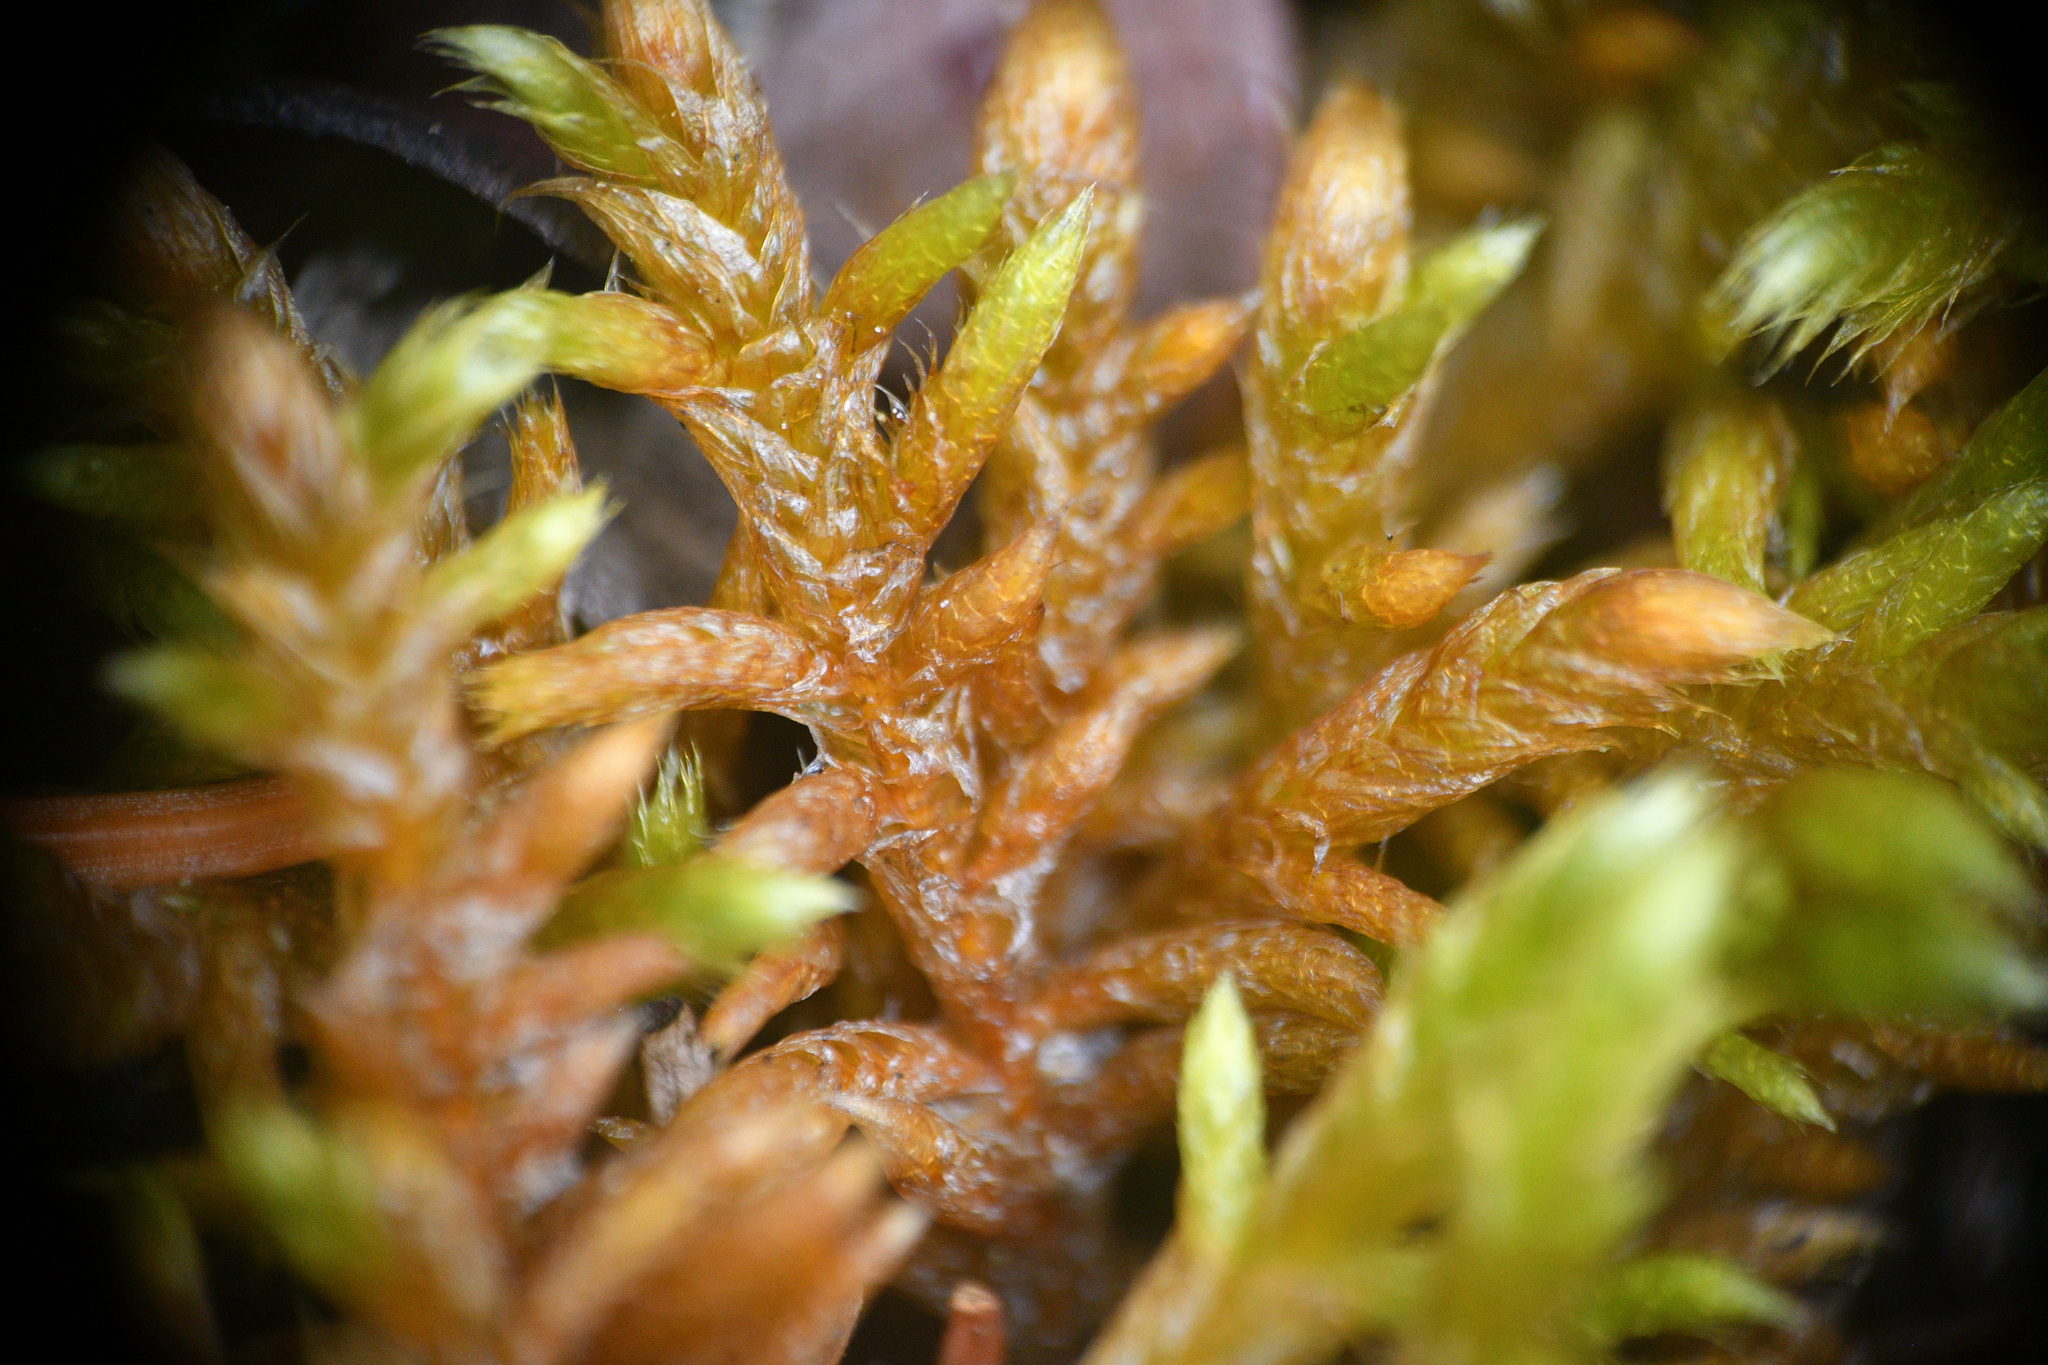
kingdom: Plantae
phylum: Bryophyta
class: Bryopsida
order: Hypnales
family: Rhytidiaceae
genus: Rhytidium
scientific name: Rhytidium rugosum
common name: Wrinkle-leaved moss
